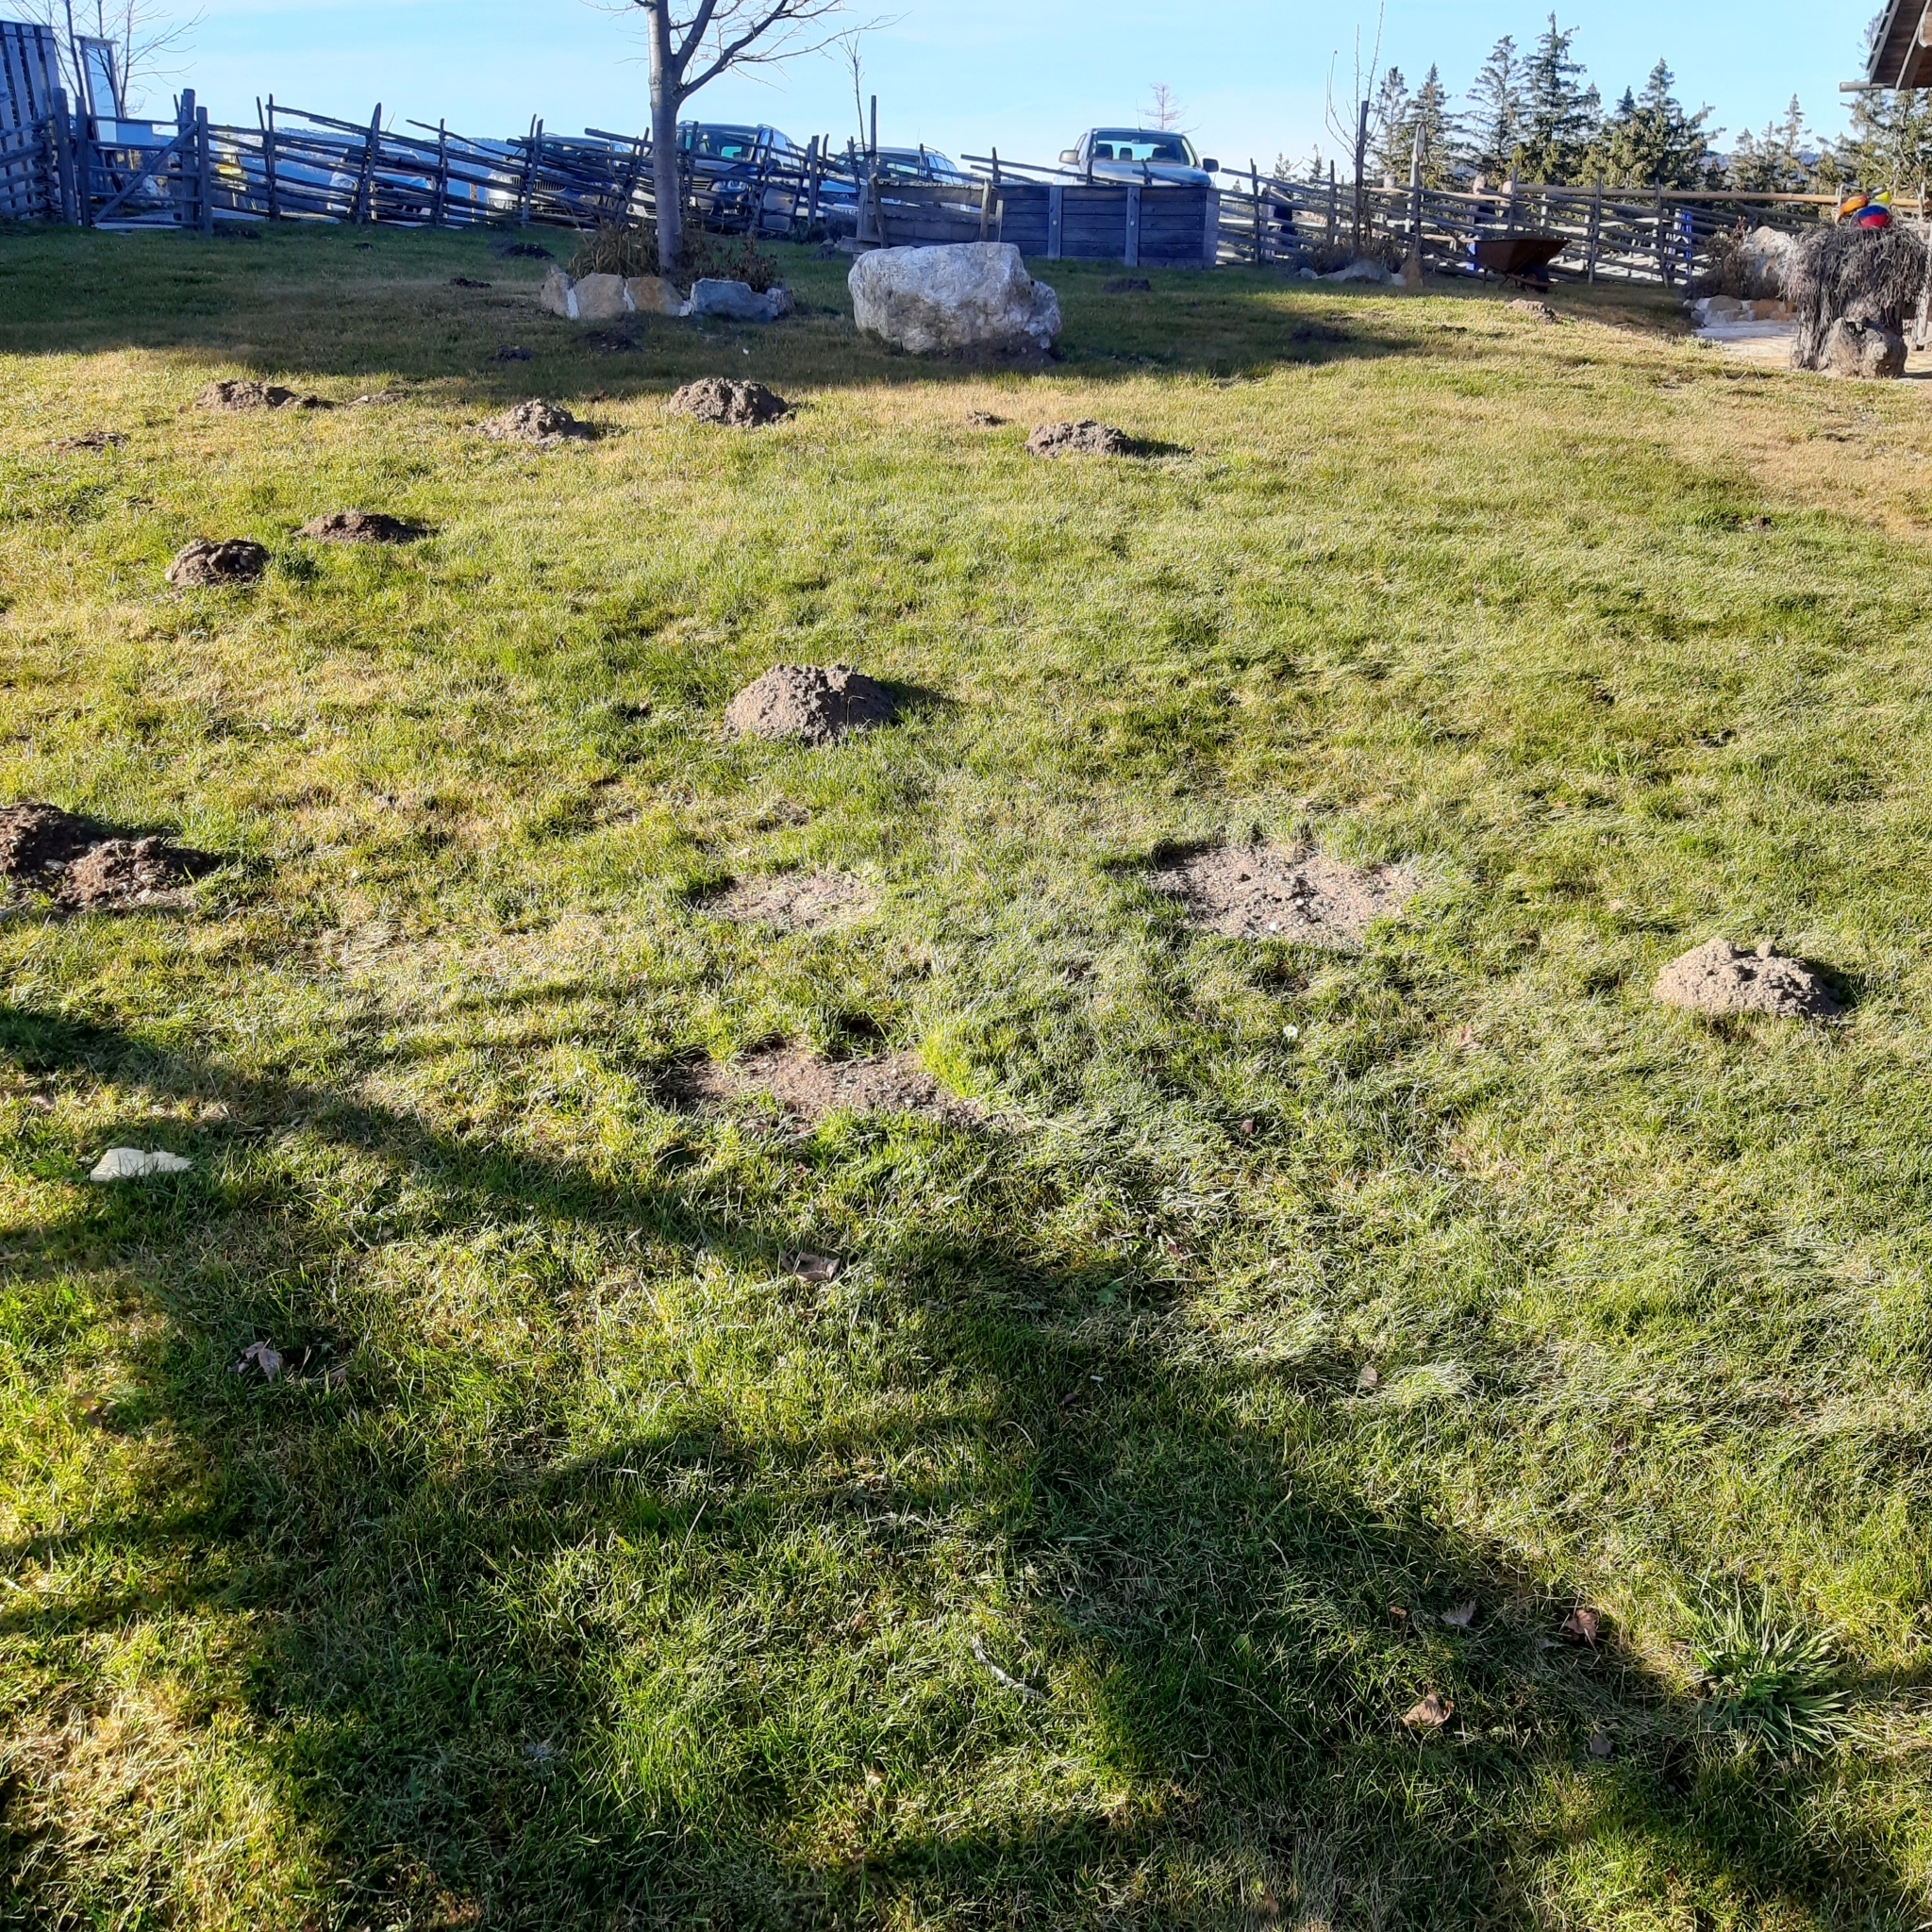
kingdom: Animalia
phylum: Chordata
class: Mammalia
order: Soricomorpha
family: Talpidae
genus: Talpa
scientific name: Talpa europaea
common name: European mole
